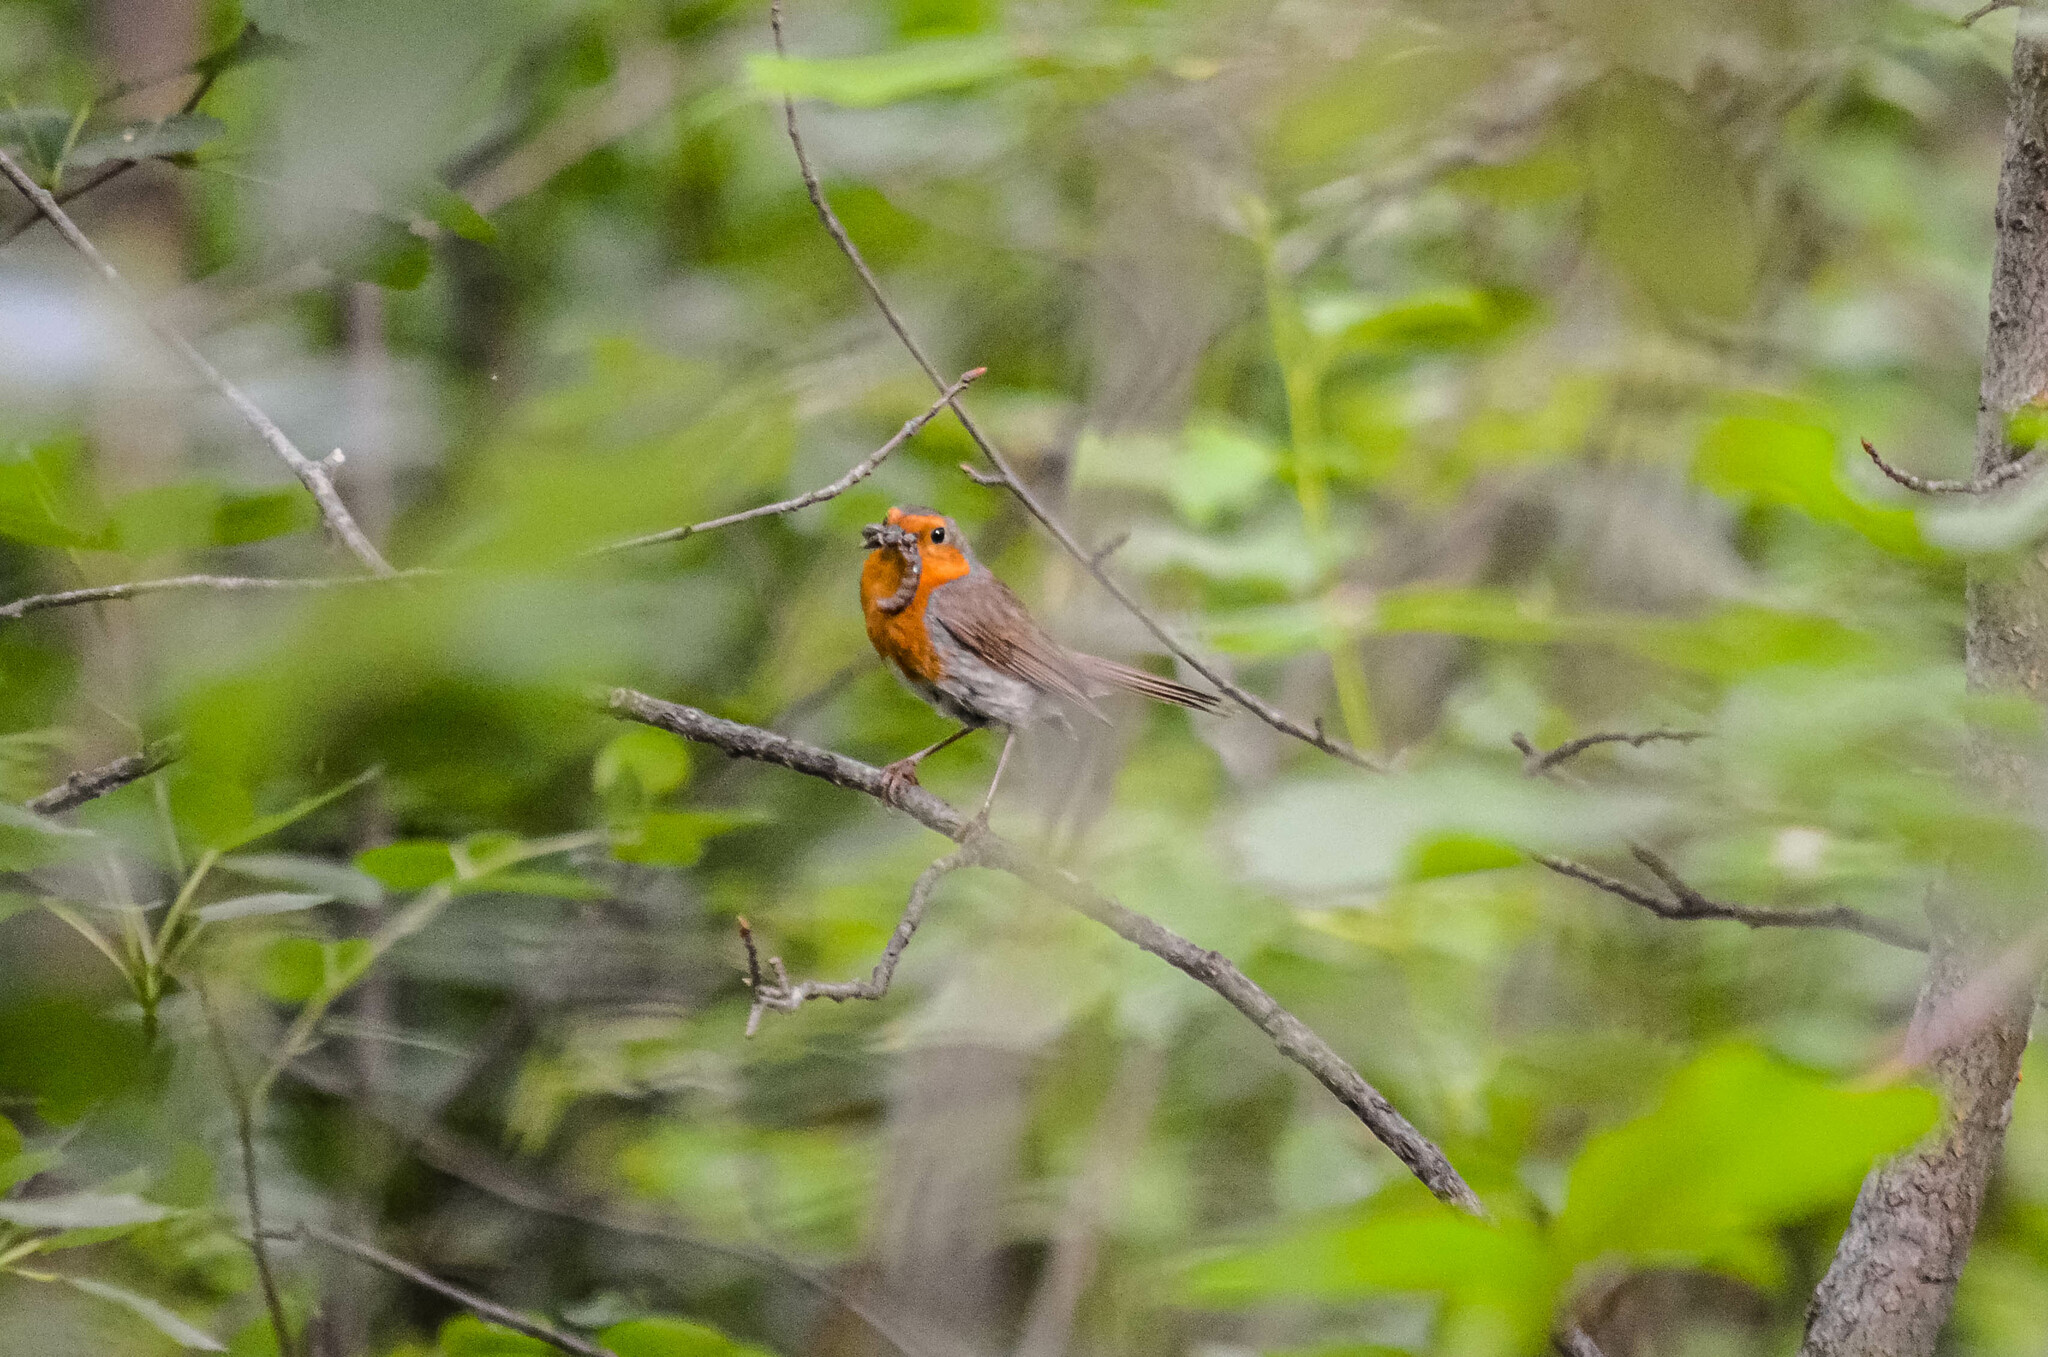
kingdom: Animalia
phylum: Chordata
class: Aves
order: Passeriformes
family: Muscicapidae
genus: Erithacus
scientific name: Erithacus rubecula
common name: European robin
